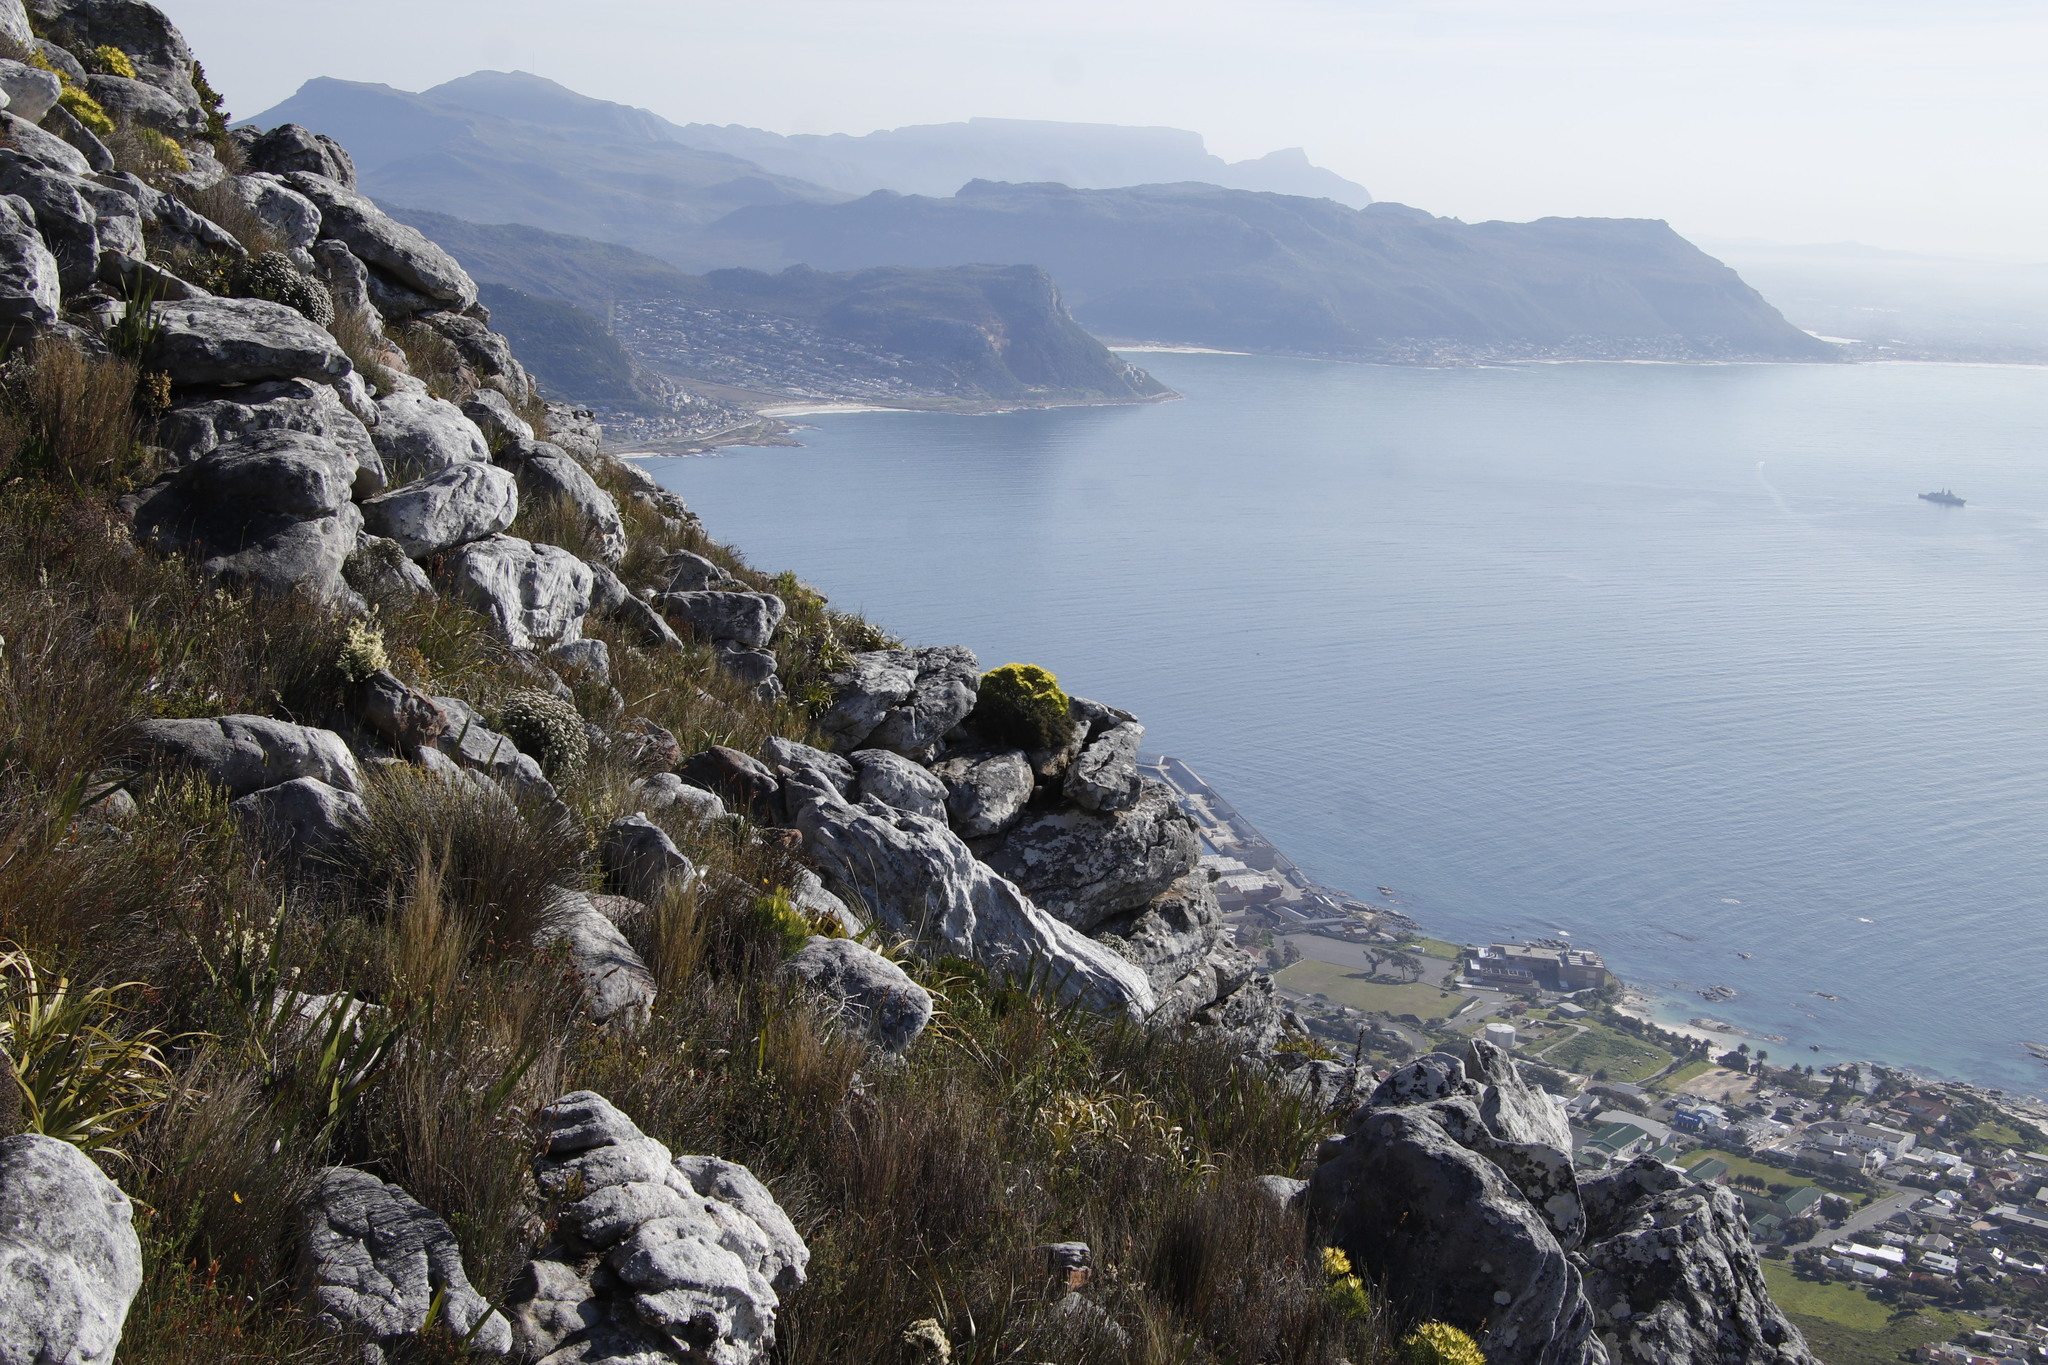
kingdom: Plantae
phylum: Tracheophyta
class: Magnoliopsida
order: Ericales
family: Ericaceae
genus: Erica
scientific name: Erica lutea
